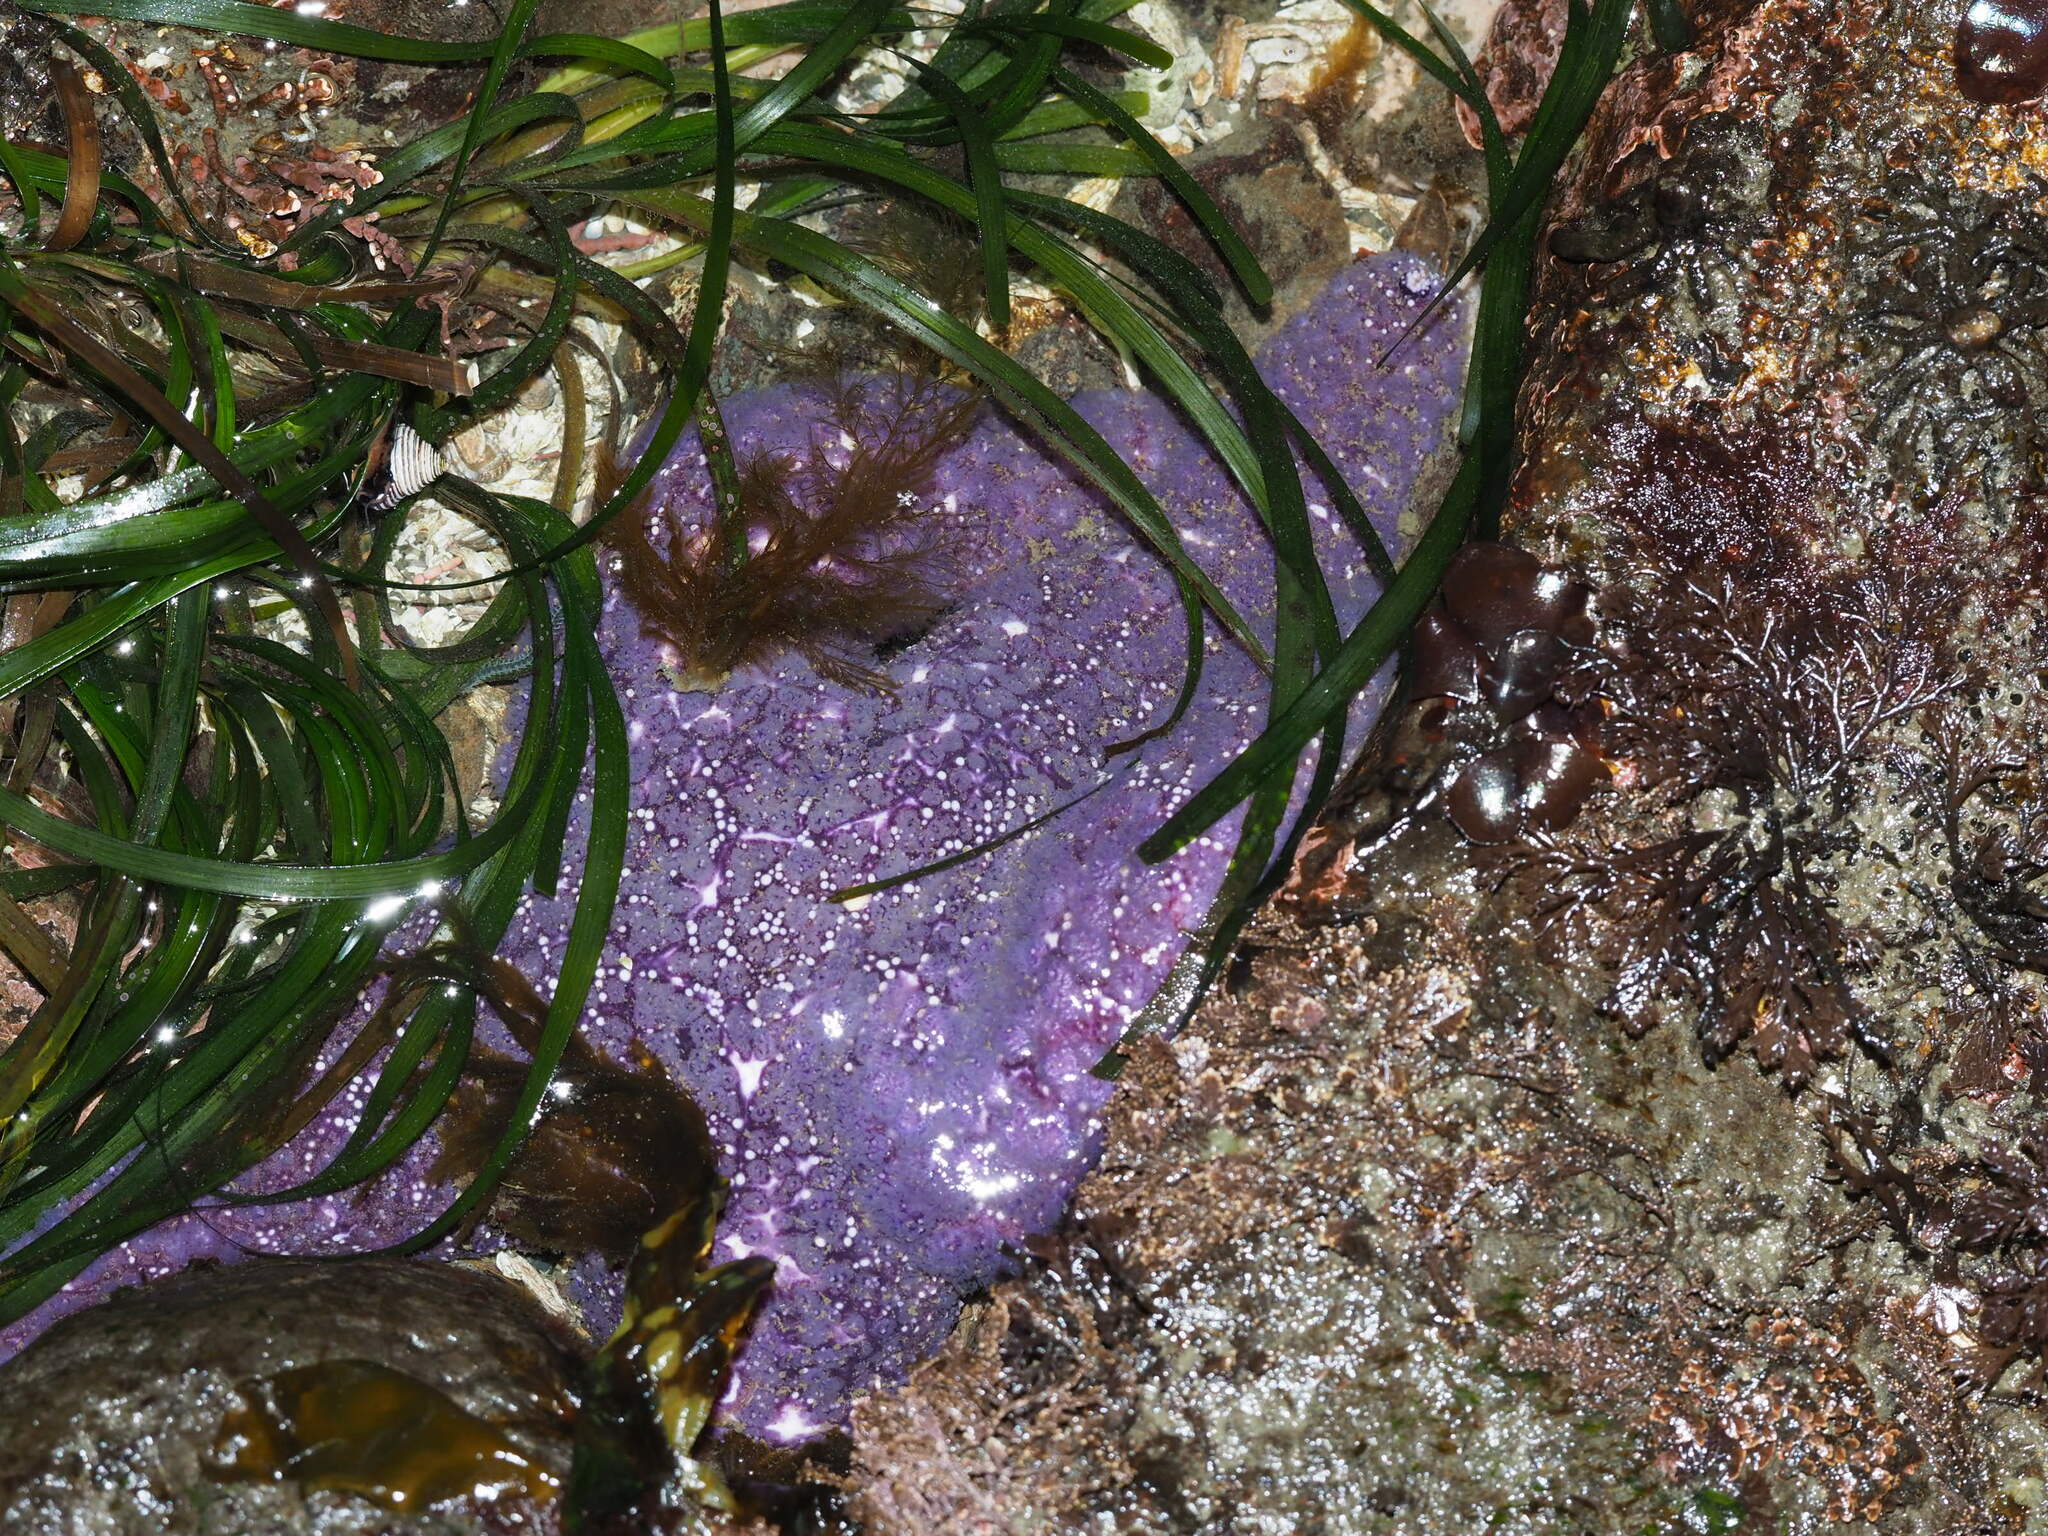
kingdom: Animalia
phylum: Echinodermata
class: Asteroidea
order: Forcipulatida
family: Asteriidae
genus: Pisaster
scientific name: Pisaster ochraceus
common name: Ochre stars
